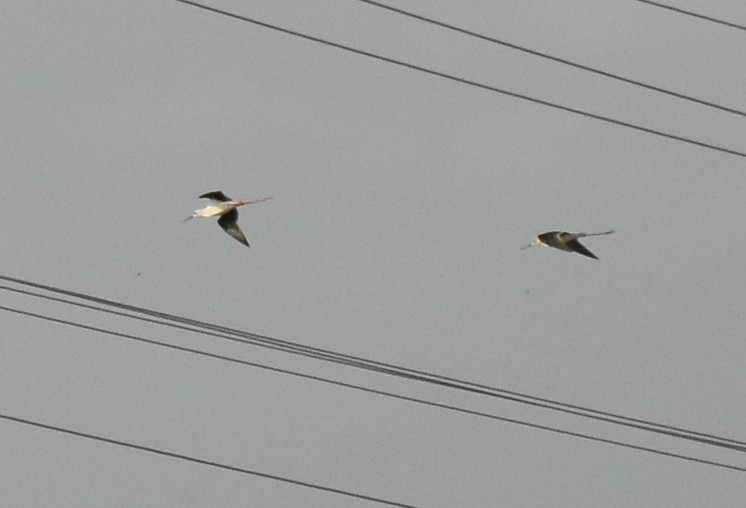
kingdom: Animalia
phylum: Chordata
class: Aves
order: Charadriiformes
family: Recurvirostridae
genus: Himantopus
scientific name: Himantopus himantopus
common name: Black-winged stilt
